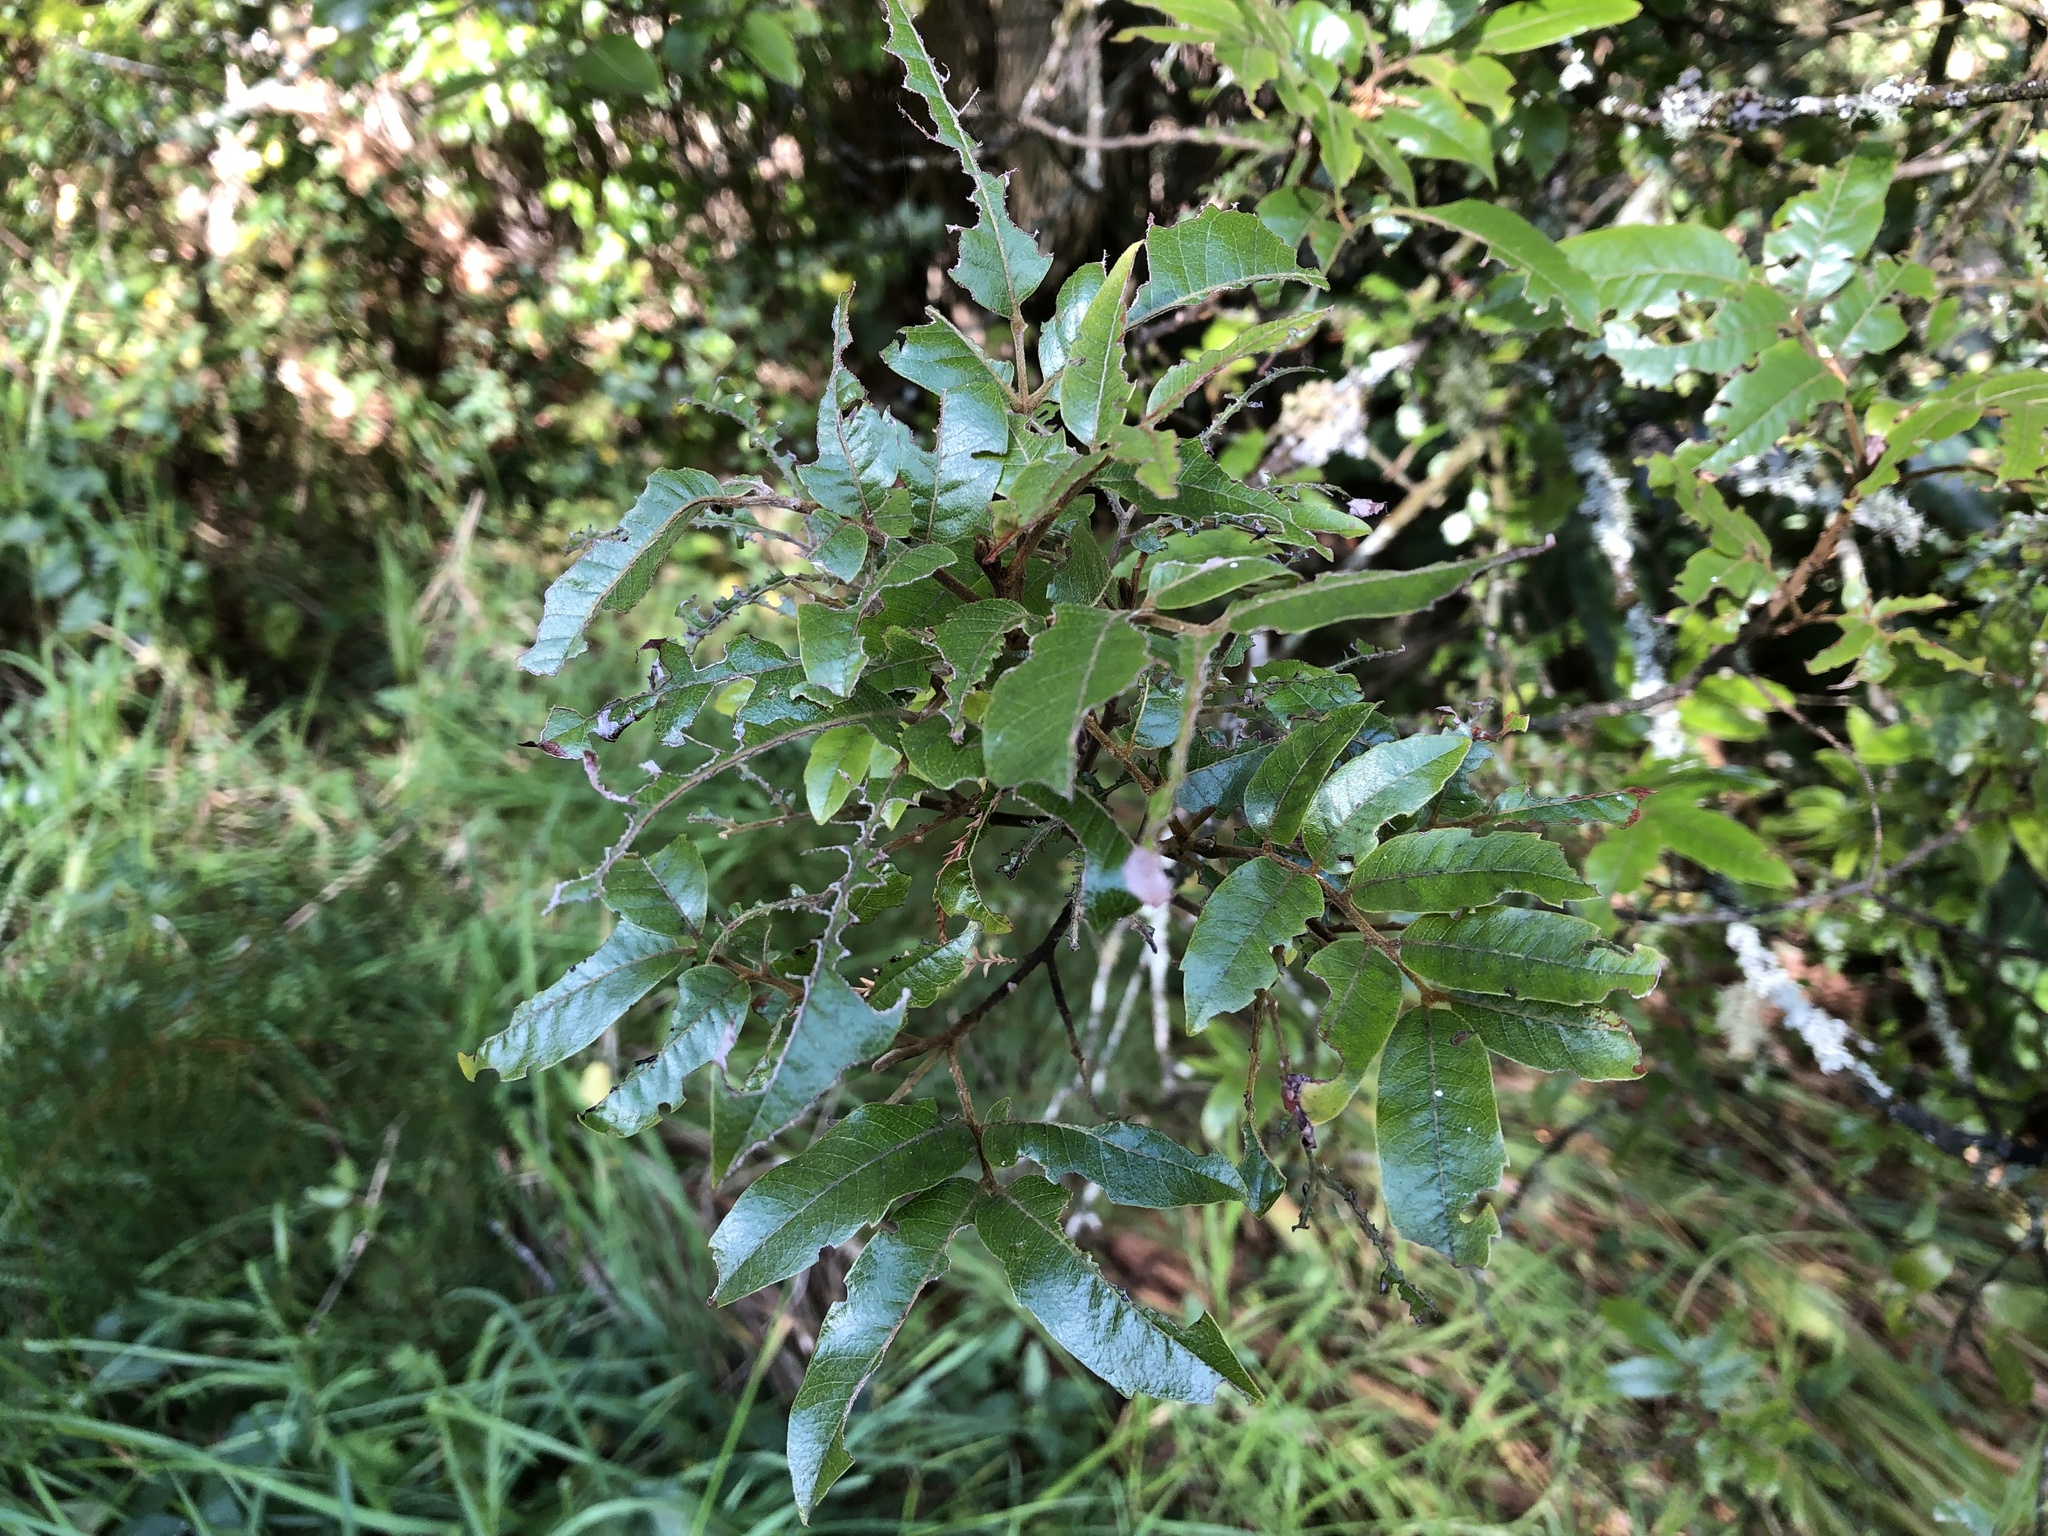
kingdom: Plantae
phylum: Tracheophyta
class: Magnoliopsida
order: Sapindales
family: Sapindaceae
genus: Alectryon
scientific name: Alectryon excelsus
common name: Three kings titoki
